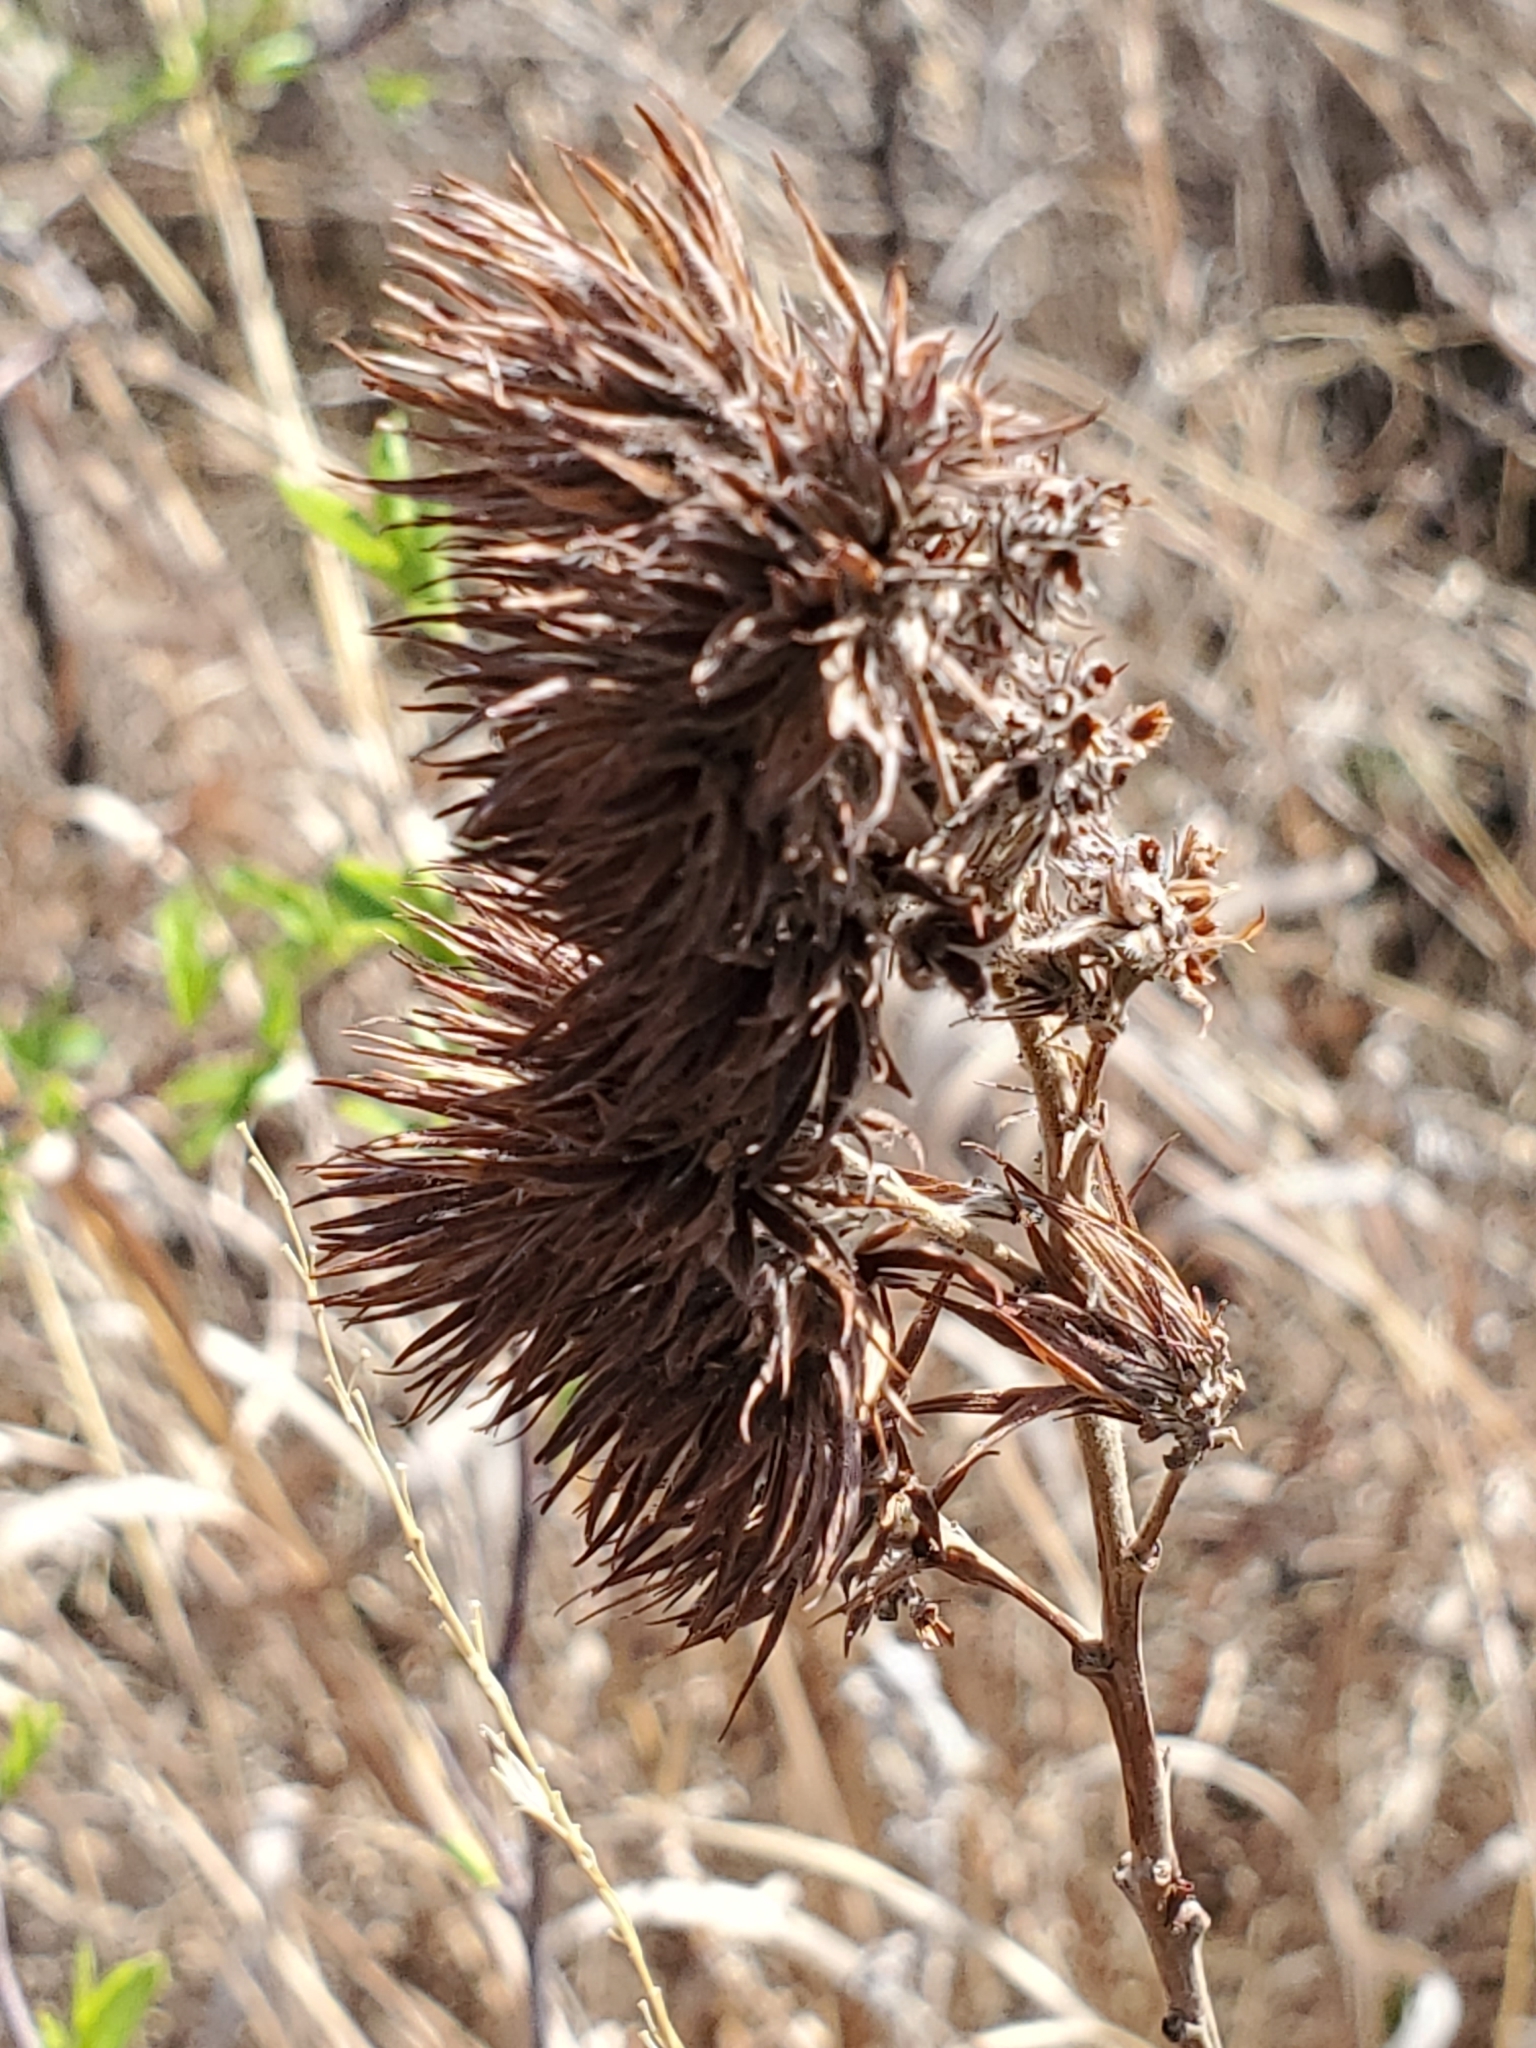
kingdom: Plantae
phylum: Tracheophyta
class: Magnoliopsida
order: Fabales
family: Fabaceae
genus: Lespedeza
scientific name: Lespedeza capitata
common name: Dusty clover
